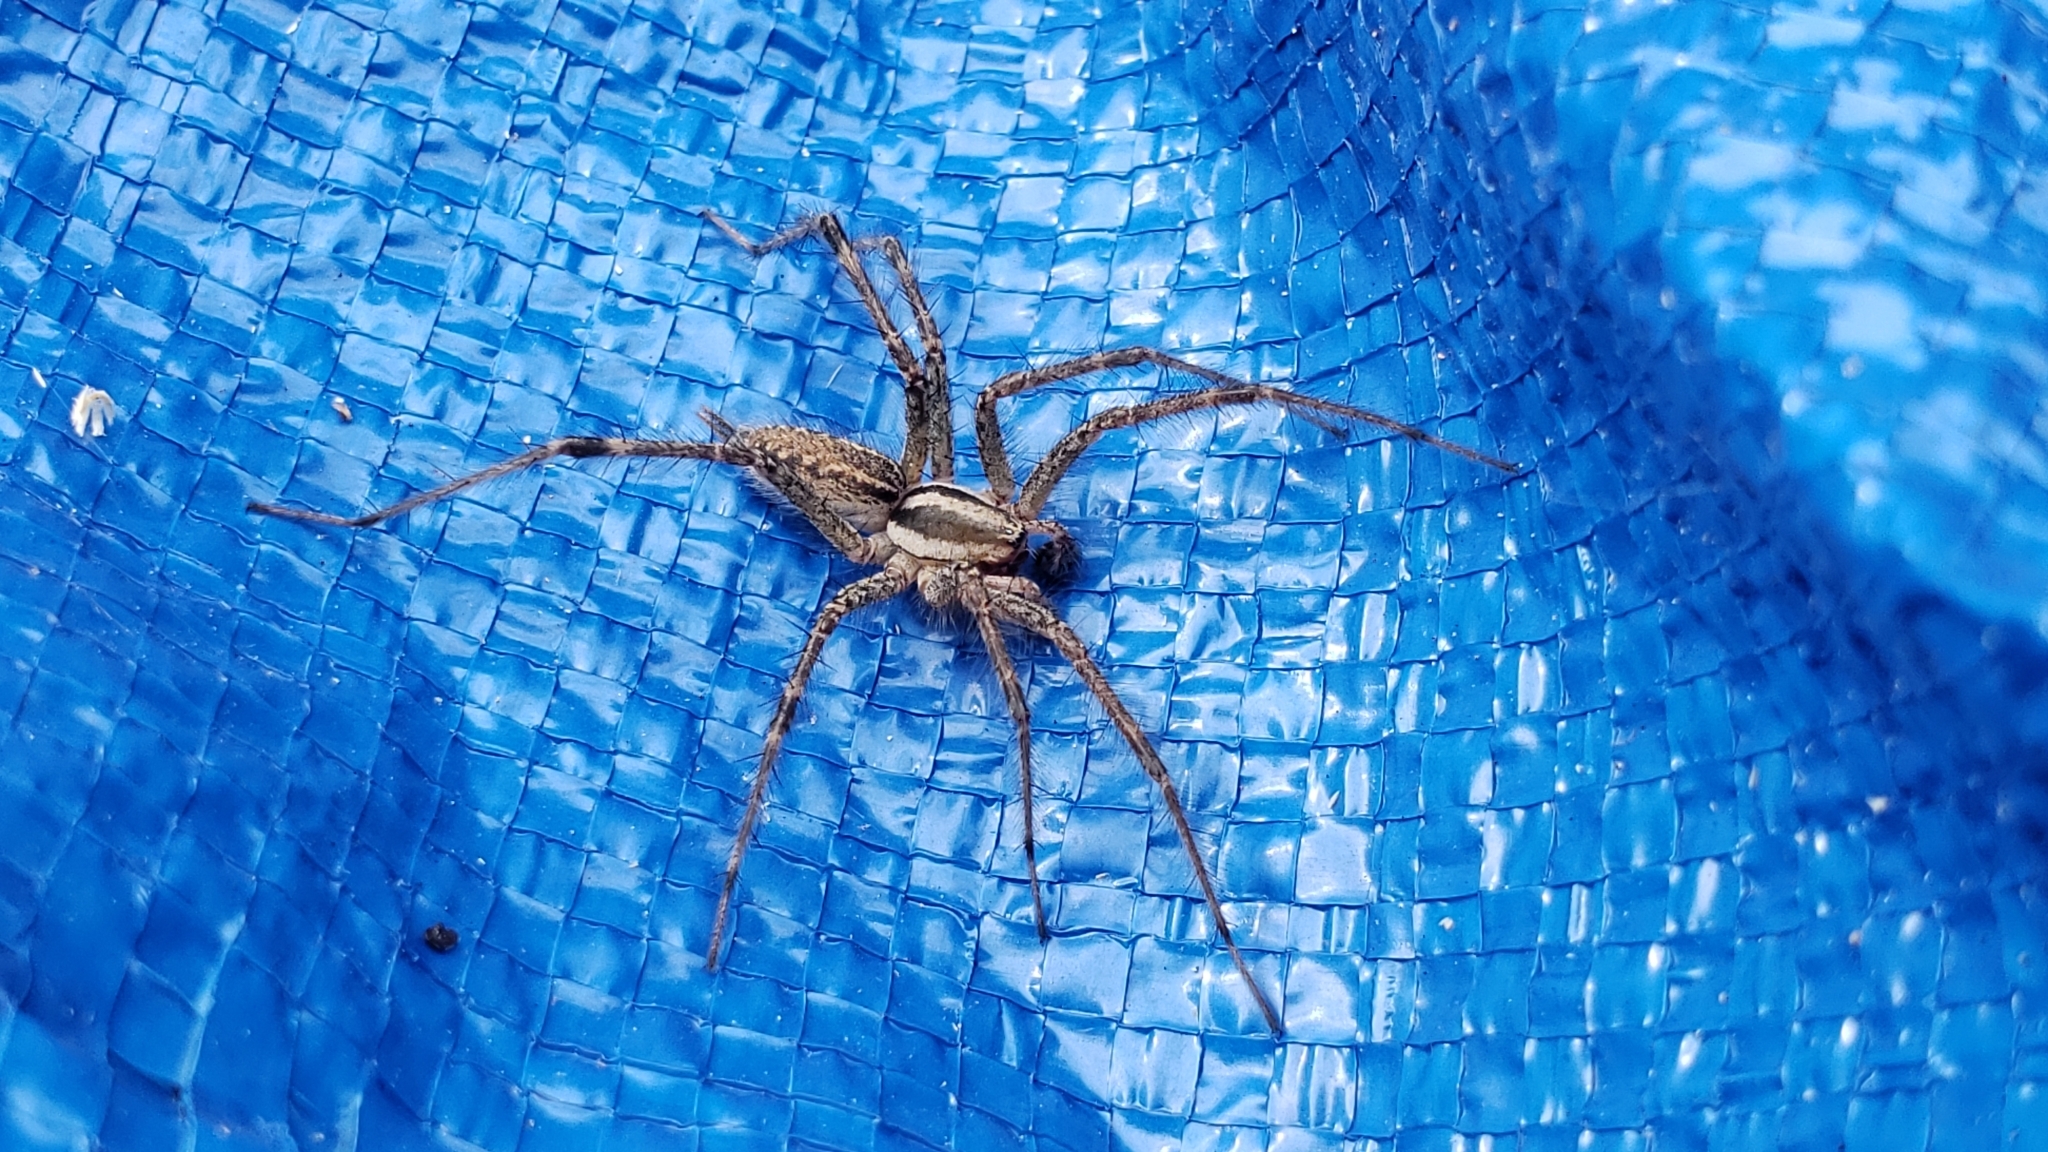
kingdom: Animalia
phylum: Arthropoda
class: Arachnida
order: Araneae
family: Agelenidae
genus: Agelenopsis
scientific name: Agelenopsis
